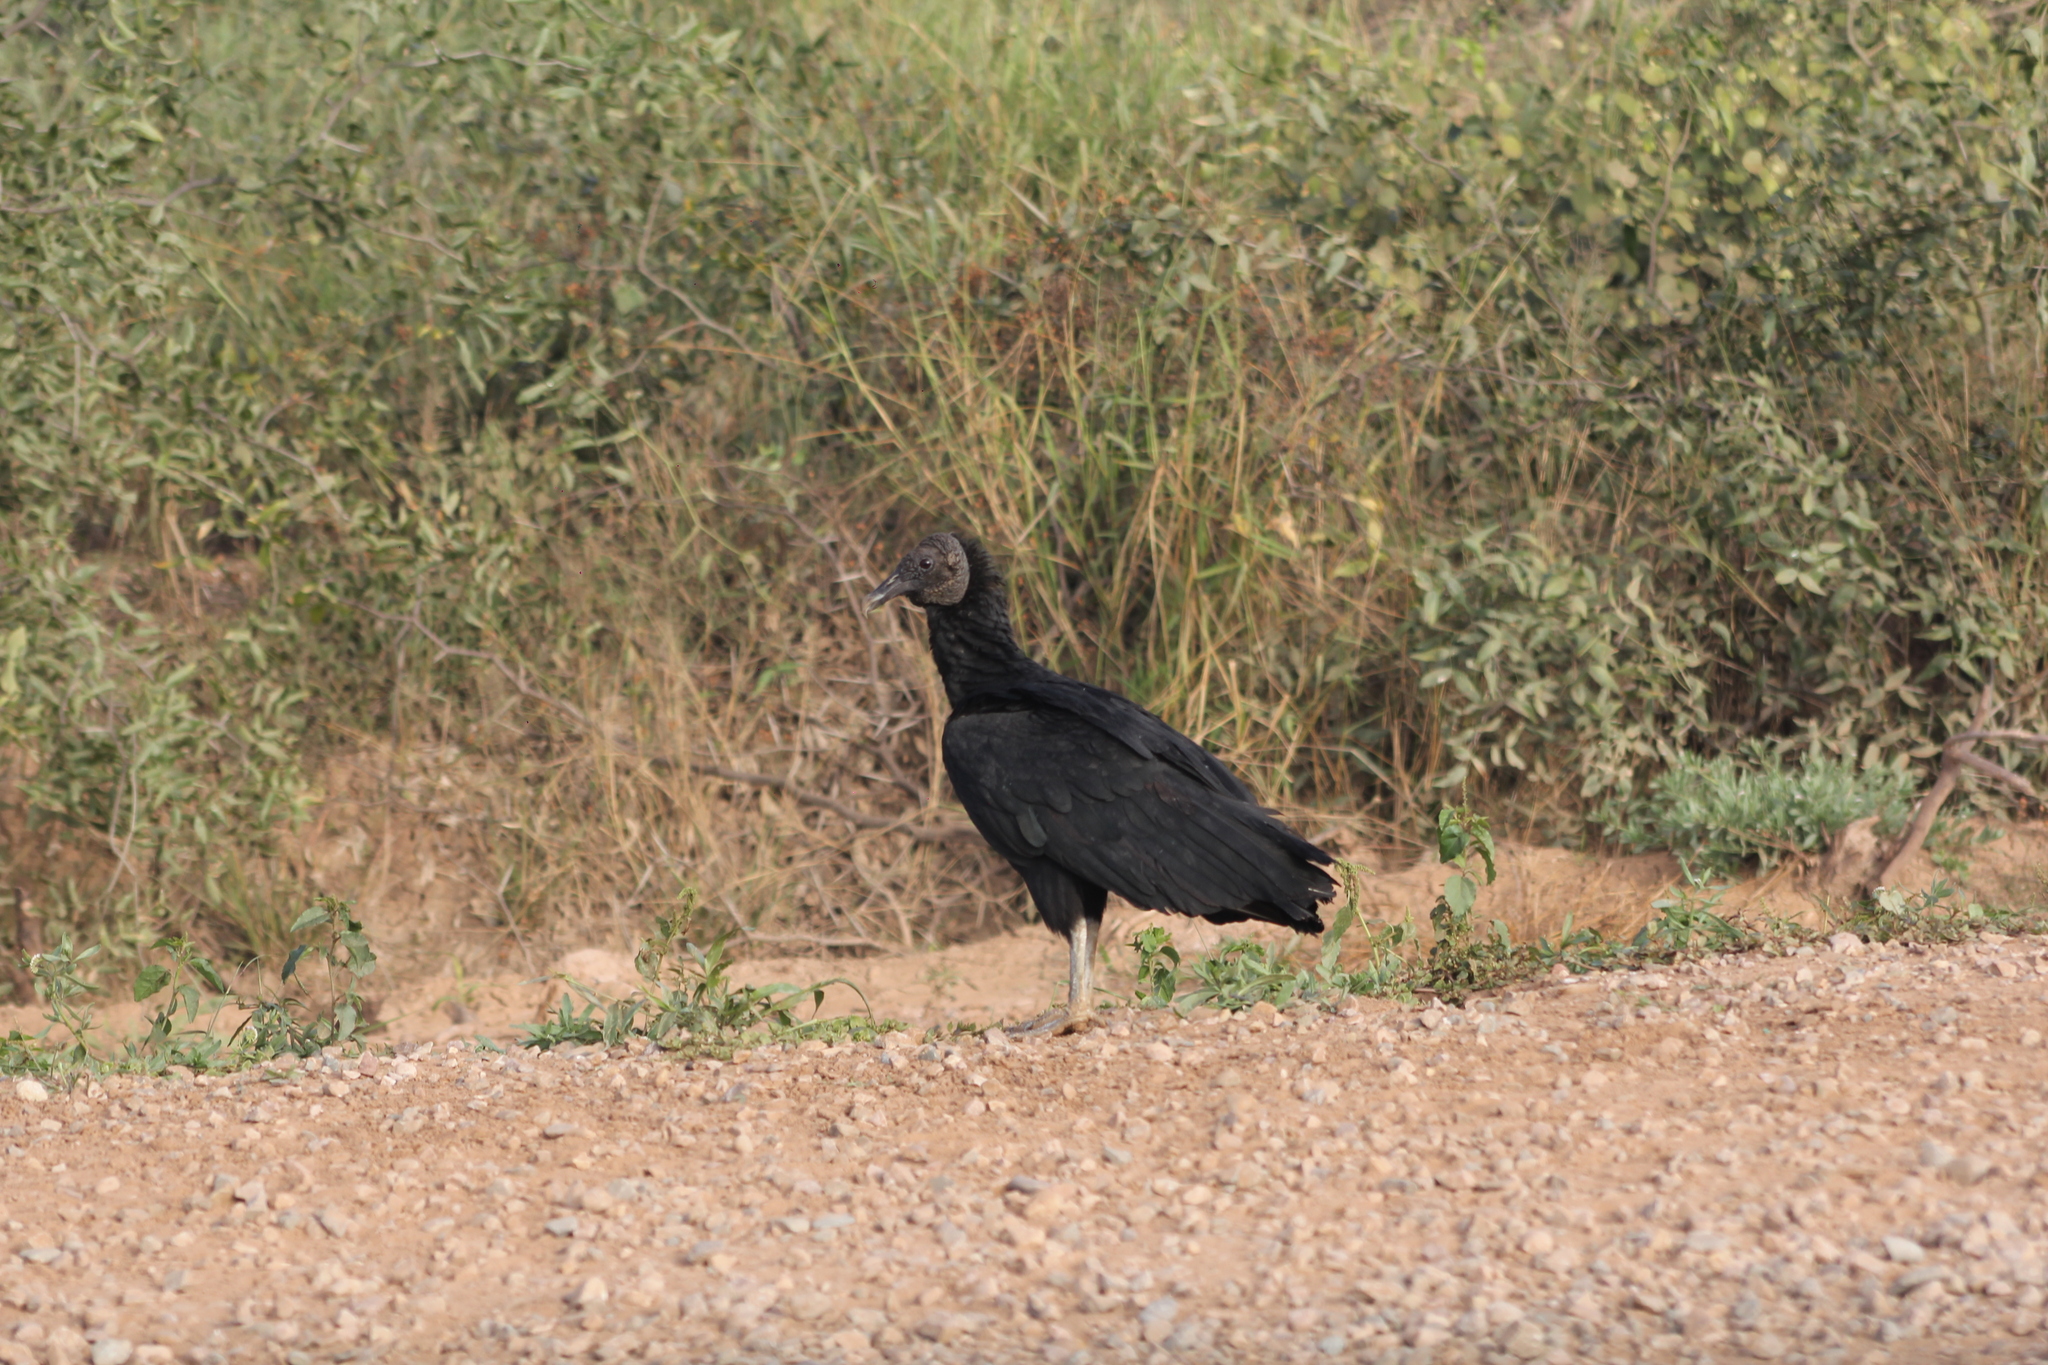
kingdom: Animalia
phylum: Chordata
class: Aves
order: Accipitriformes
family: Cathartidae
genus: Coragyps
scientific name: Coragyps atratus
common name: Black vulture
